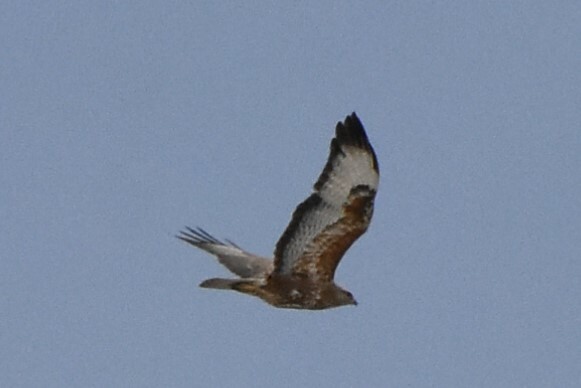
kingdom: Animalia
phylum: Chordata
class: Aves
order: Accipitriformes
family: Accipitridae
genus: Buteo
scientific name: Buteo buteo
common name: Common buzzard
